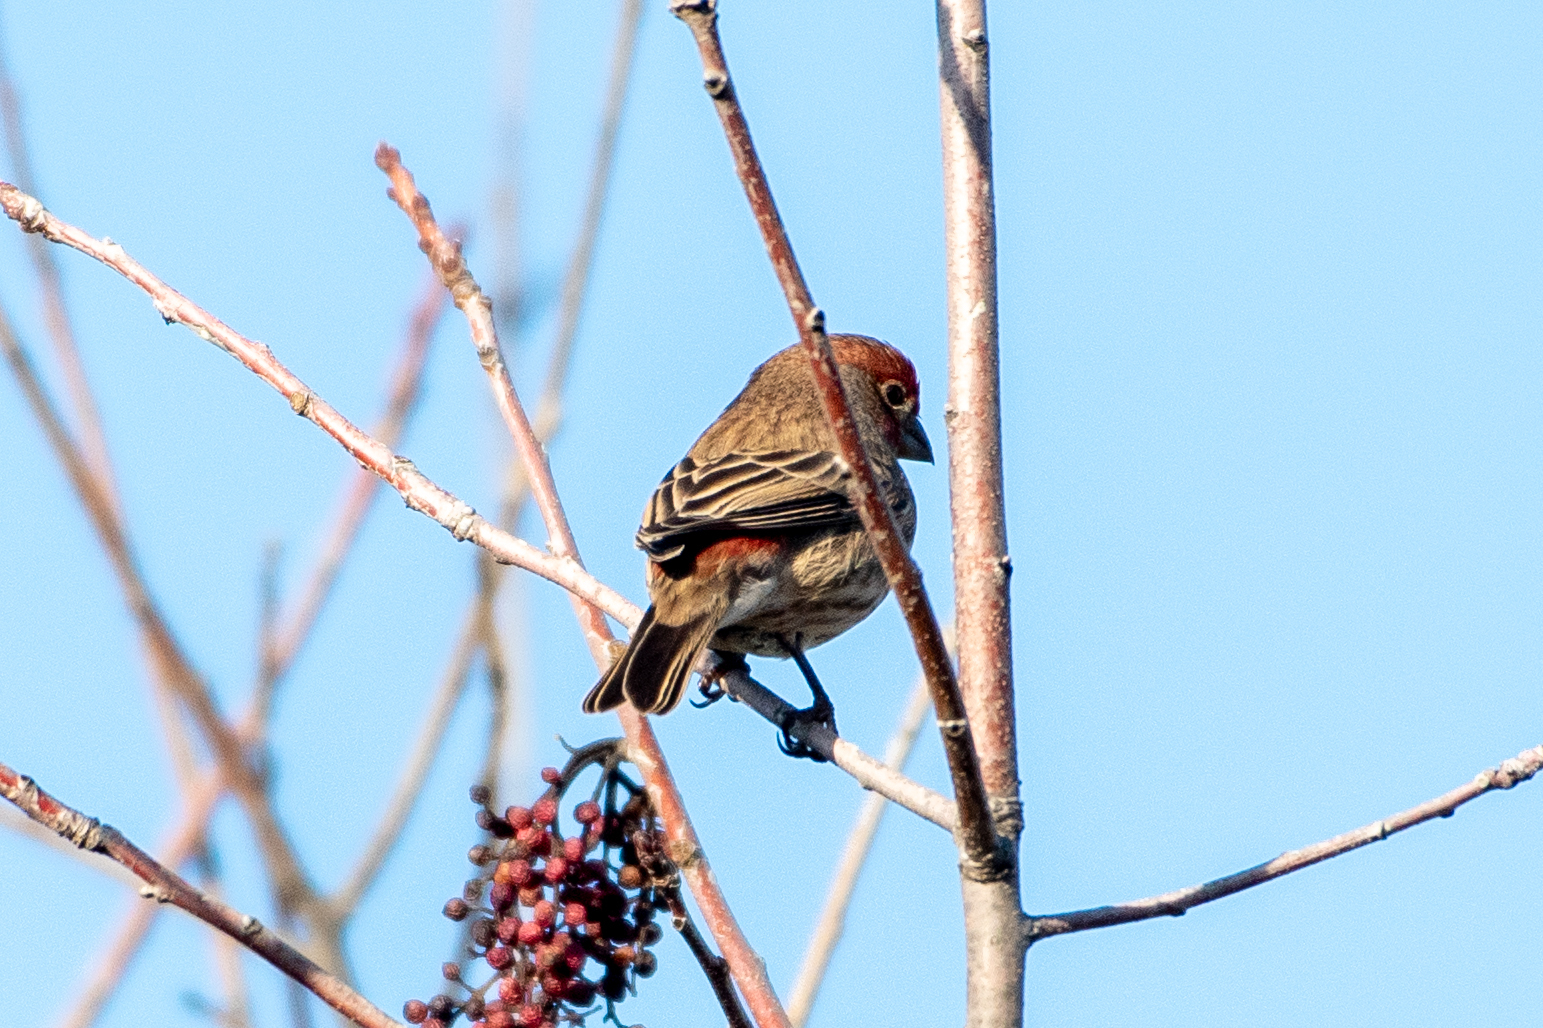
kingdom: Animalia
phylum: Chordata
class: Aves
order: Passeriformes
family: Fringillidae
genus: Haemorhous
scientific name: Haemorhous mexicanus
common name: House finch
